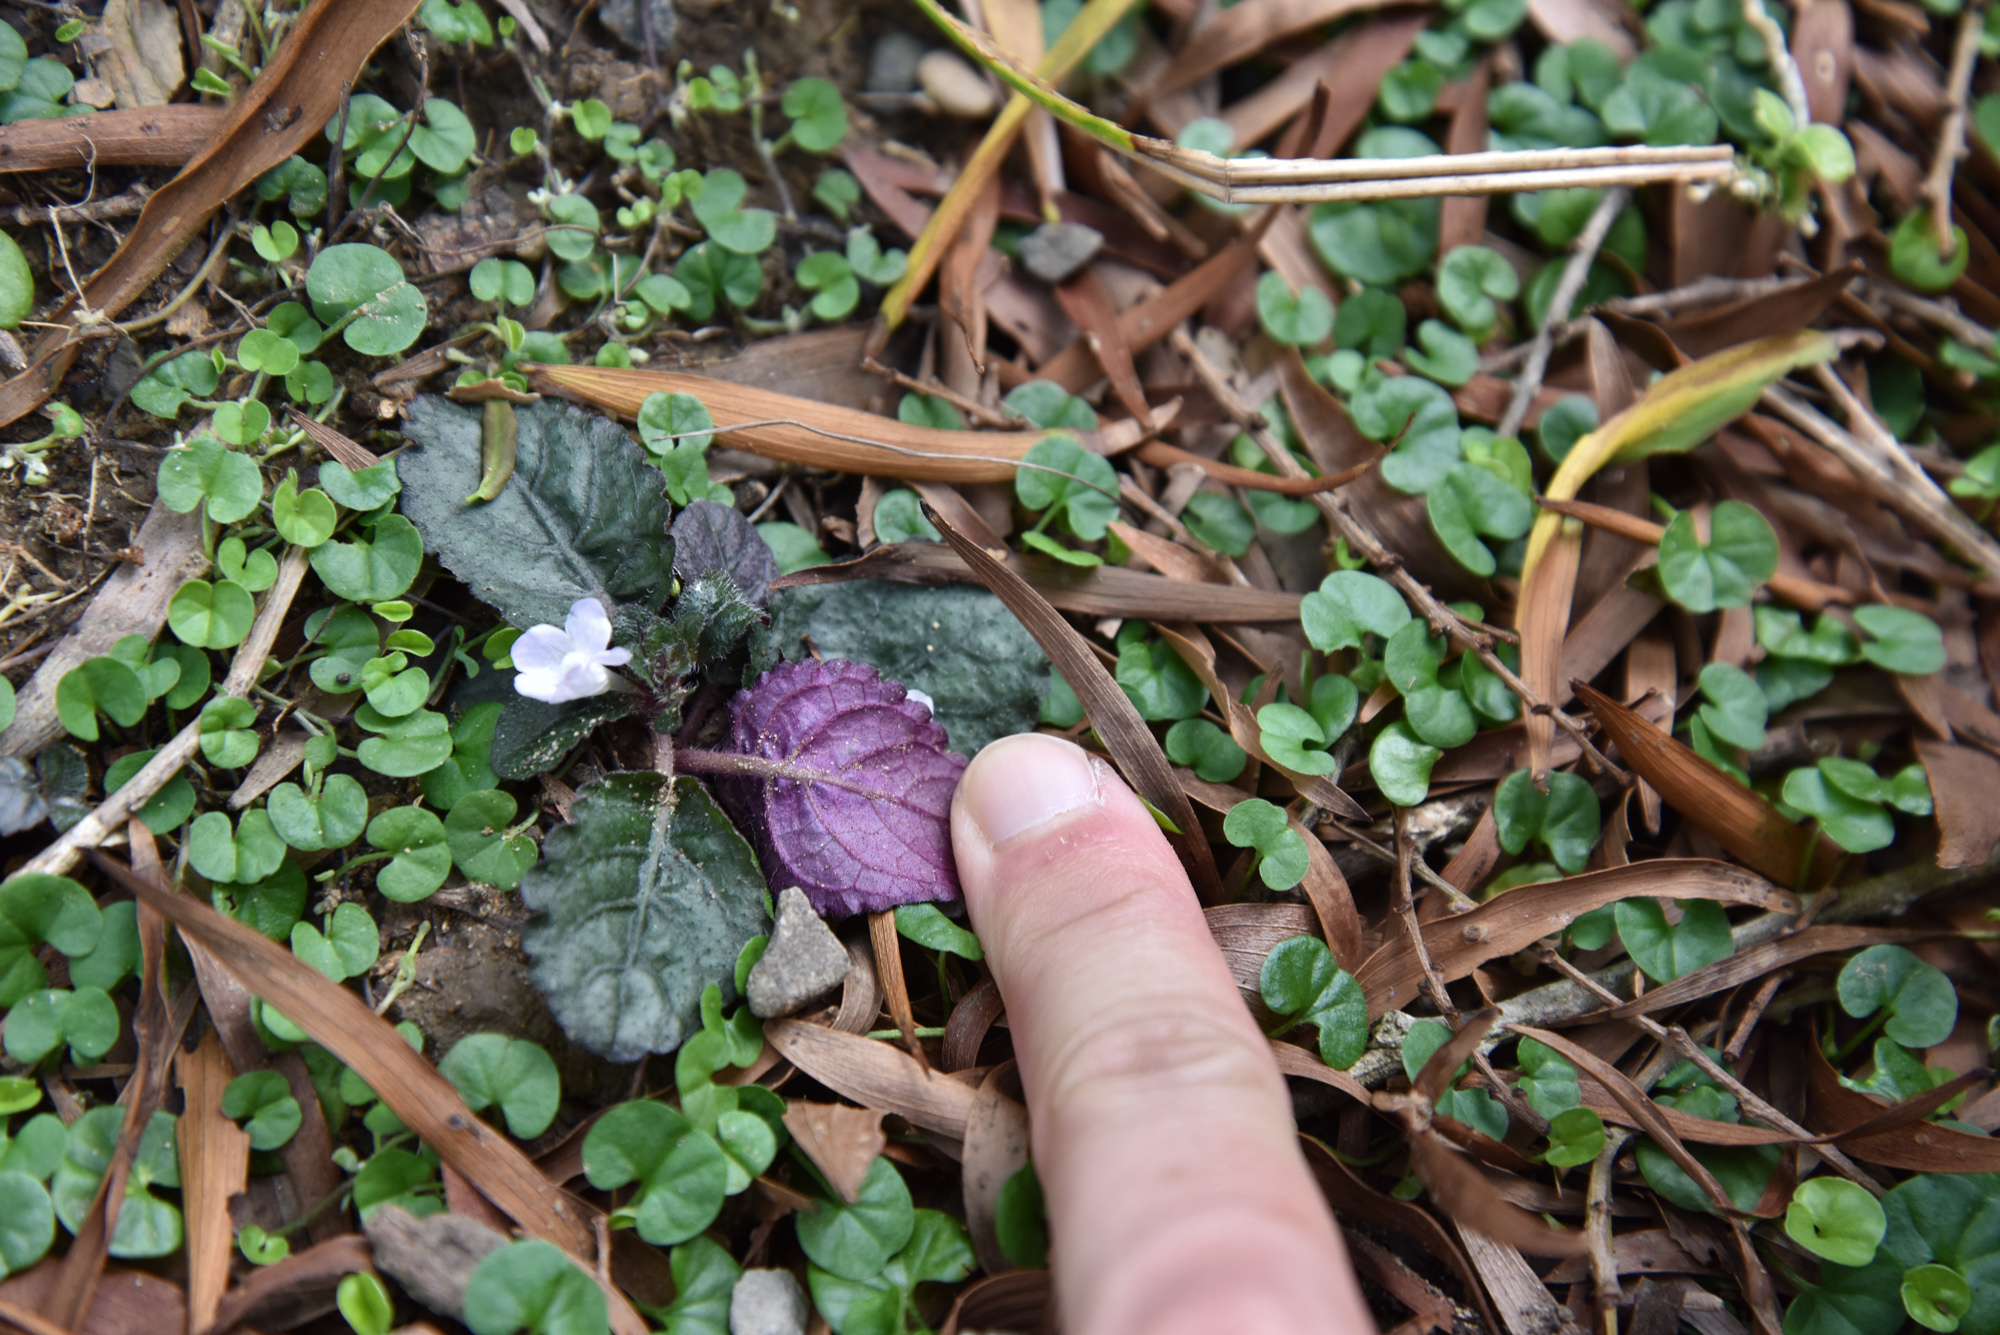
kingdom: Plantae
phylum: Tracheophyta
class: Magnoliopsida
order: Lamiales
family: Acanthaceae
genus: Strobilanthes
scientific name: Strobilanthes reptans
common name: Acanthaceae
